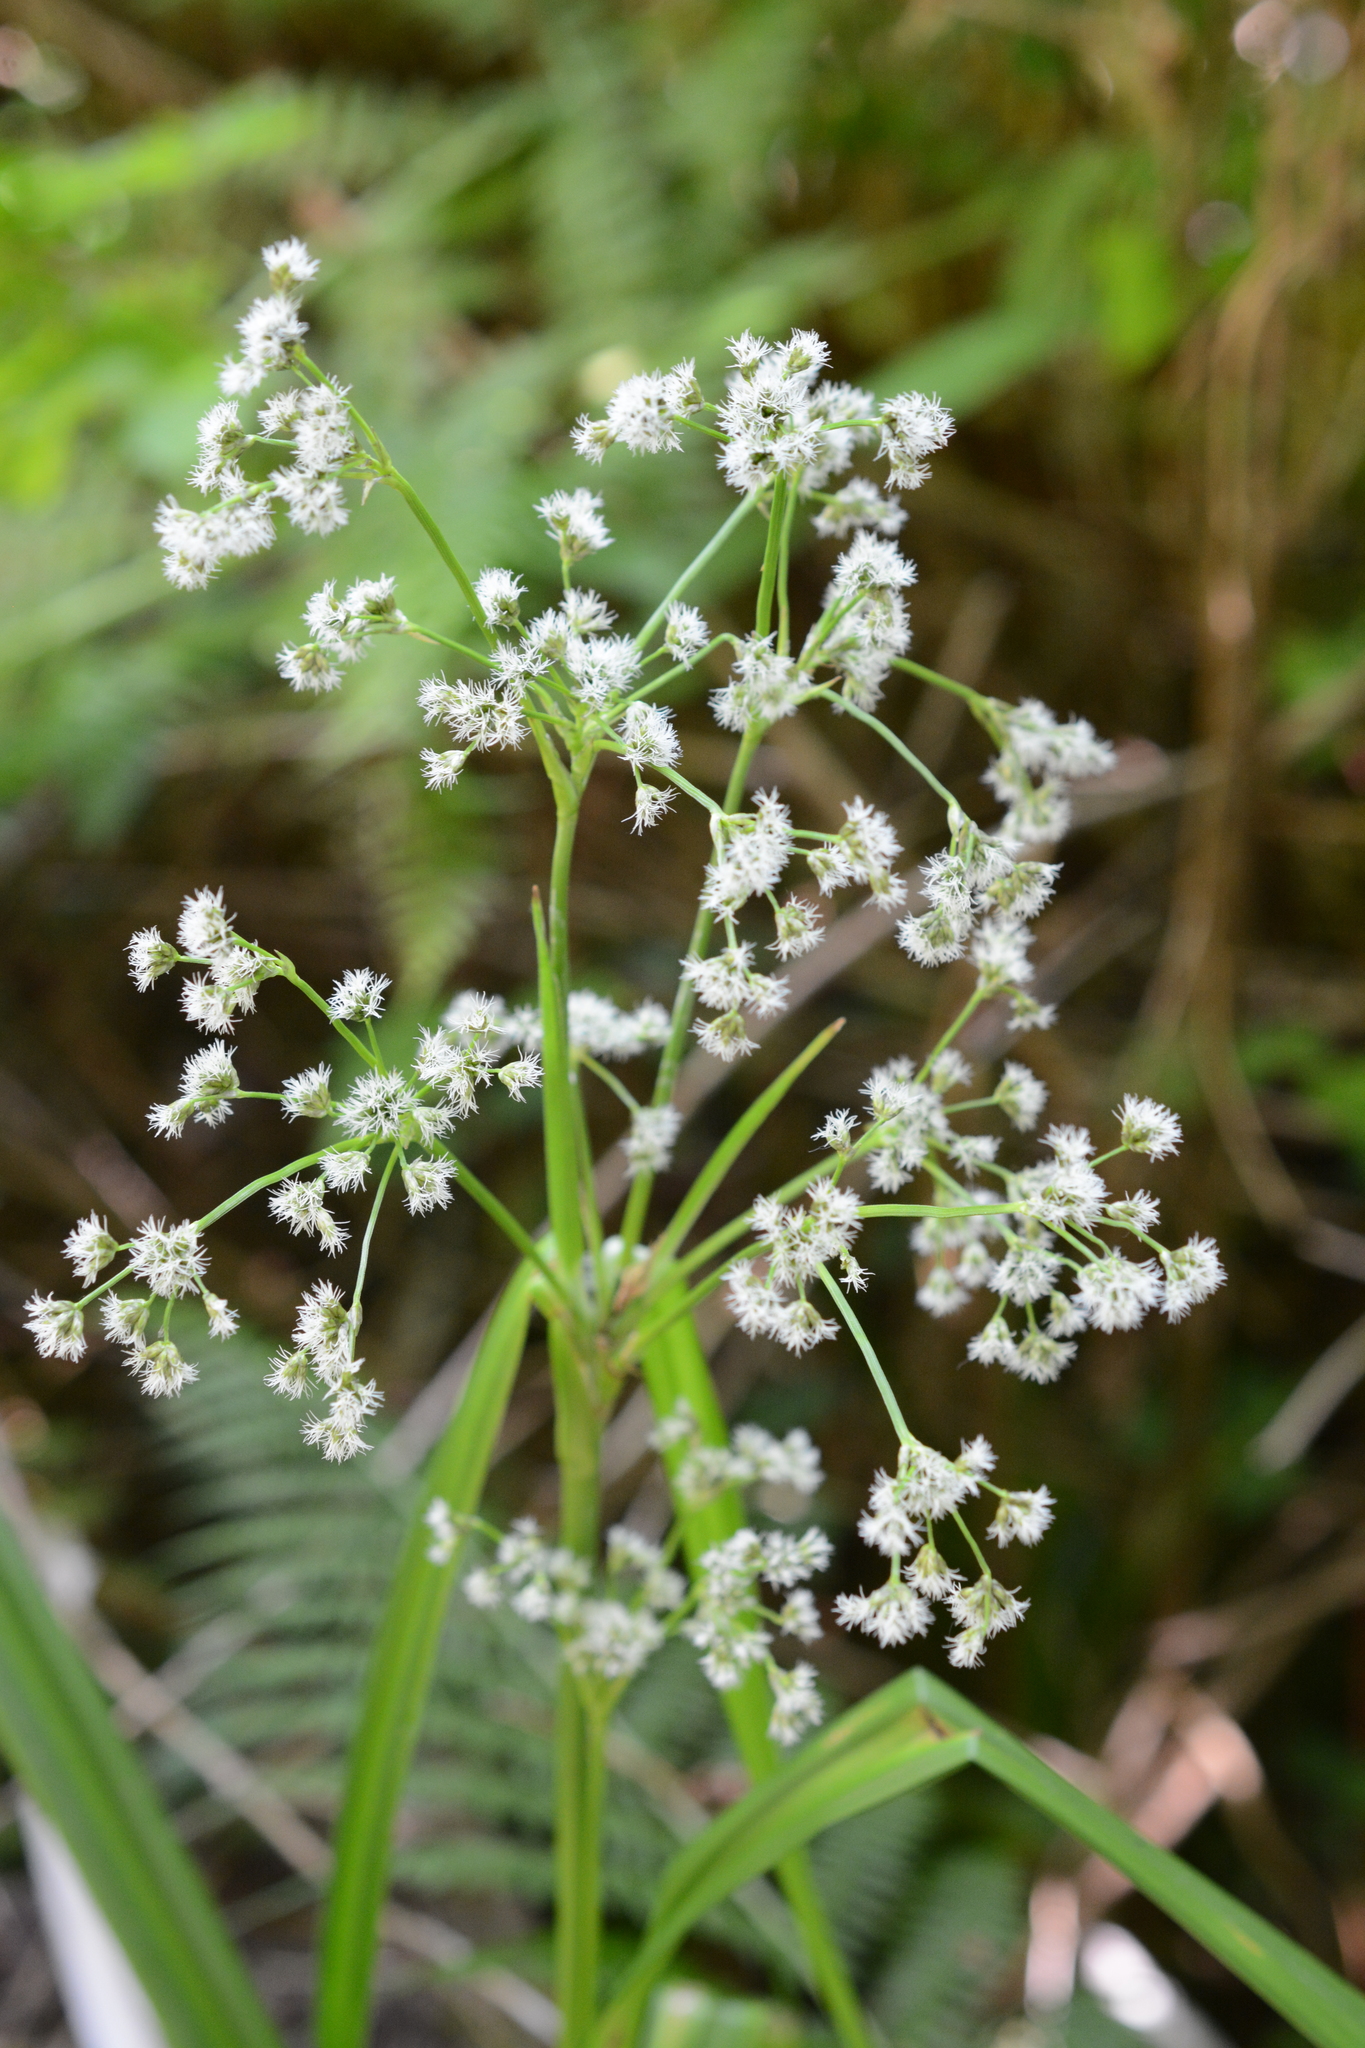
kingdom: Plantae
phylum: Tracheophyta
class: Liliopsida
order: Poales
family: Cyperaceae
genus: Scirpus
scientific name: Scirpus microcarpus
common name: Panicled bulrush
